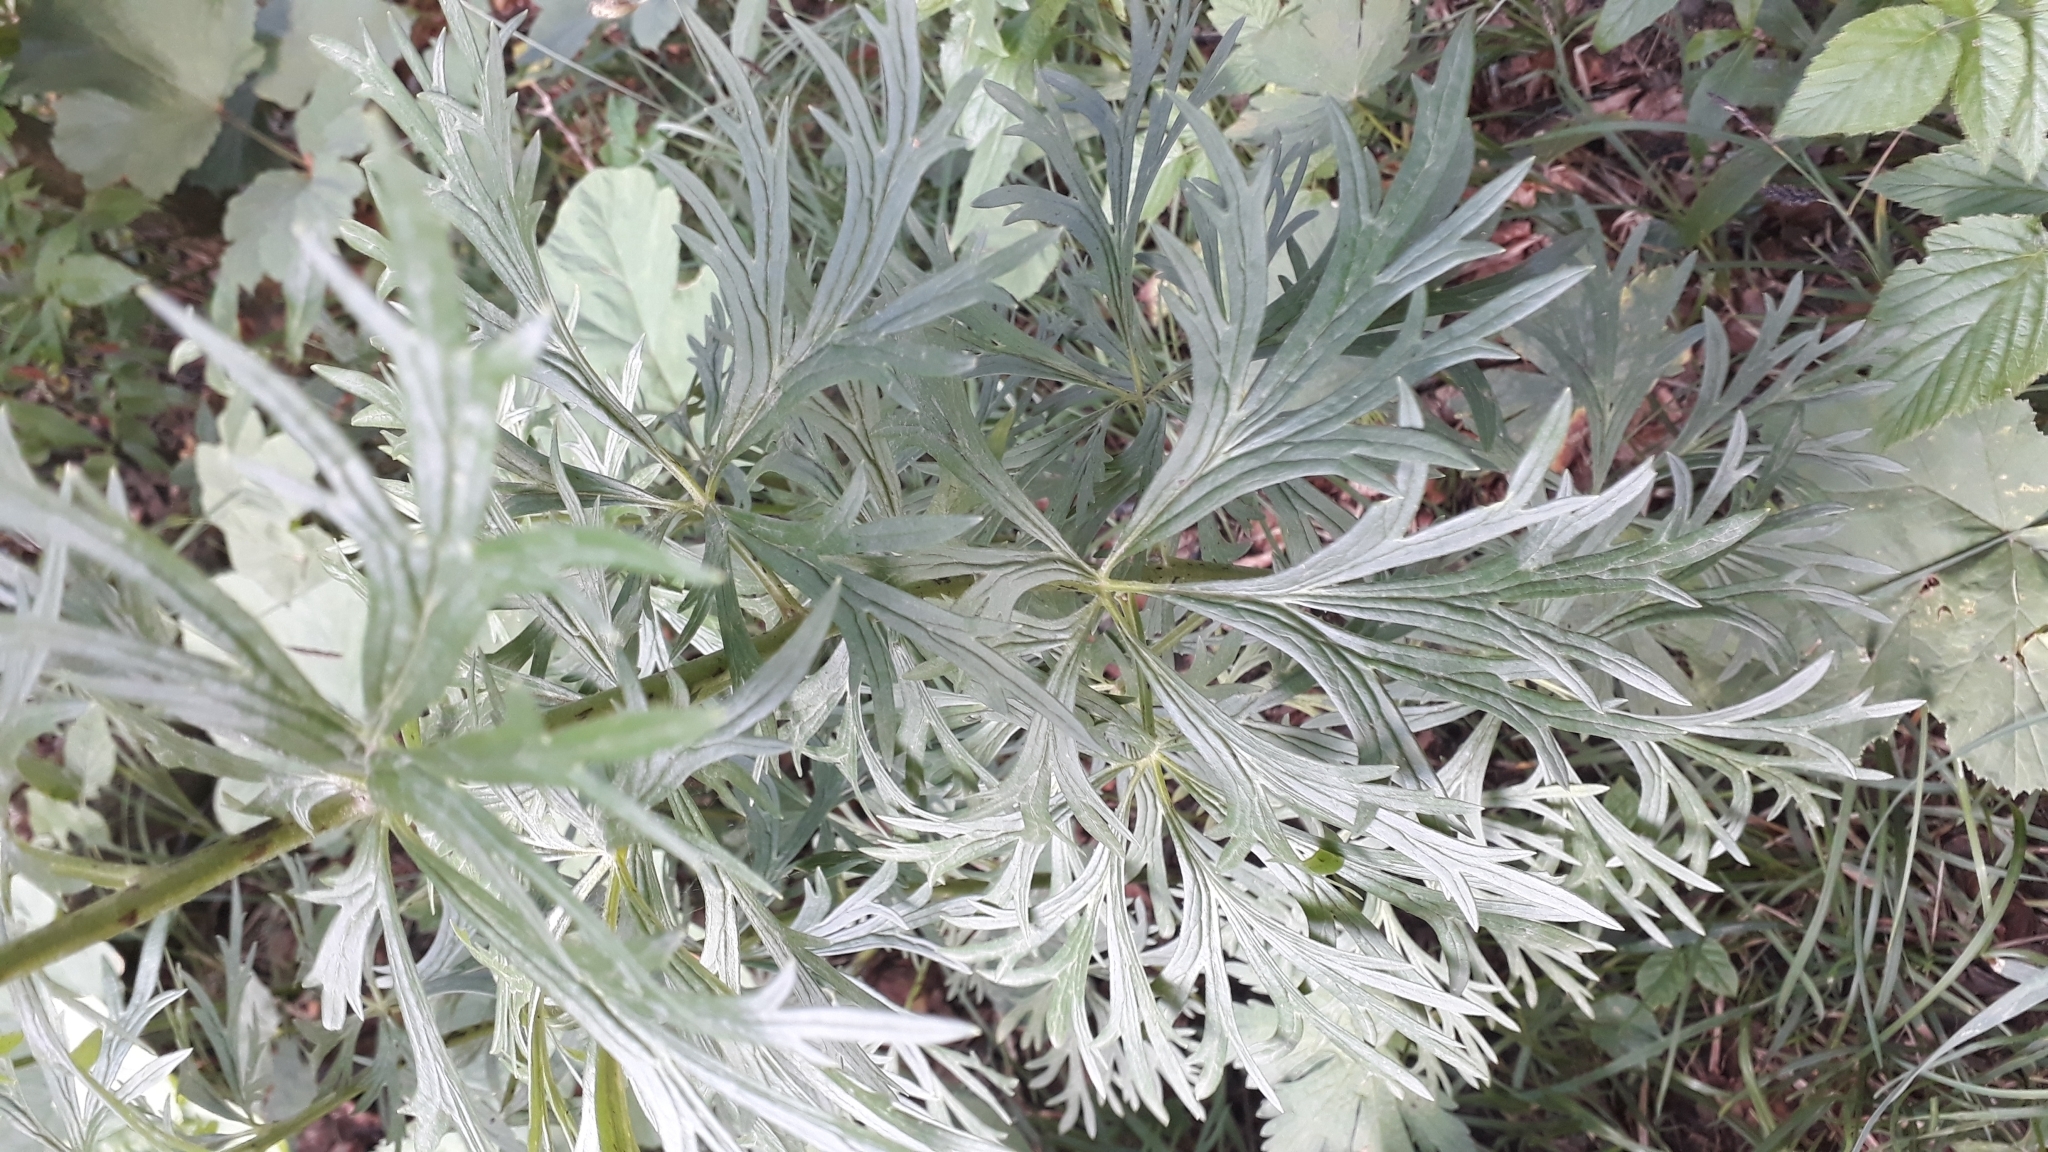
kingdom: Plantae
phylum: Tracheophyta
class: Magnoliopsida
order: Ranunculales
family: Ranunculaceae
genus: Aconitum
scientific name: Aconitum napellus
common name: Garden monkshood
